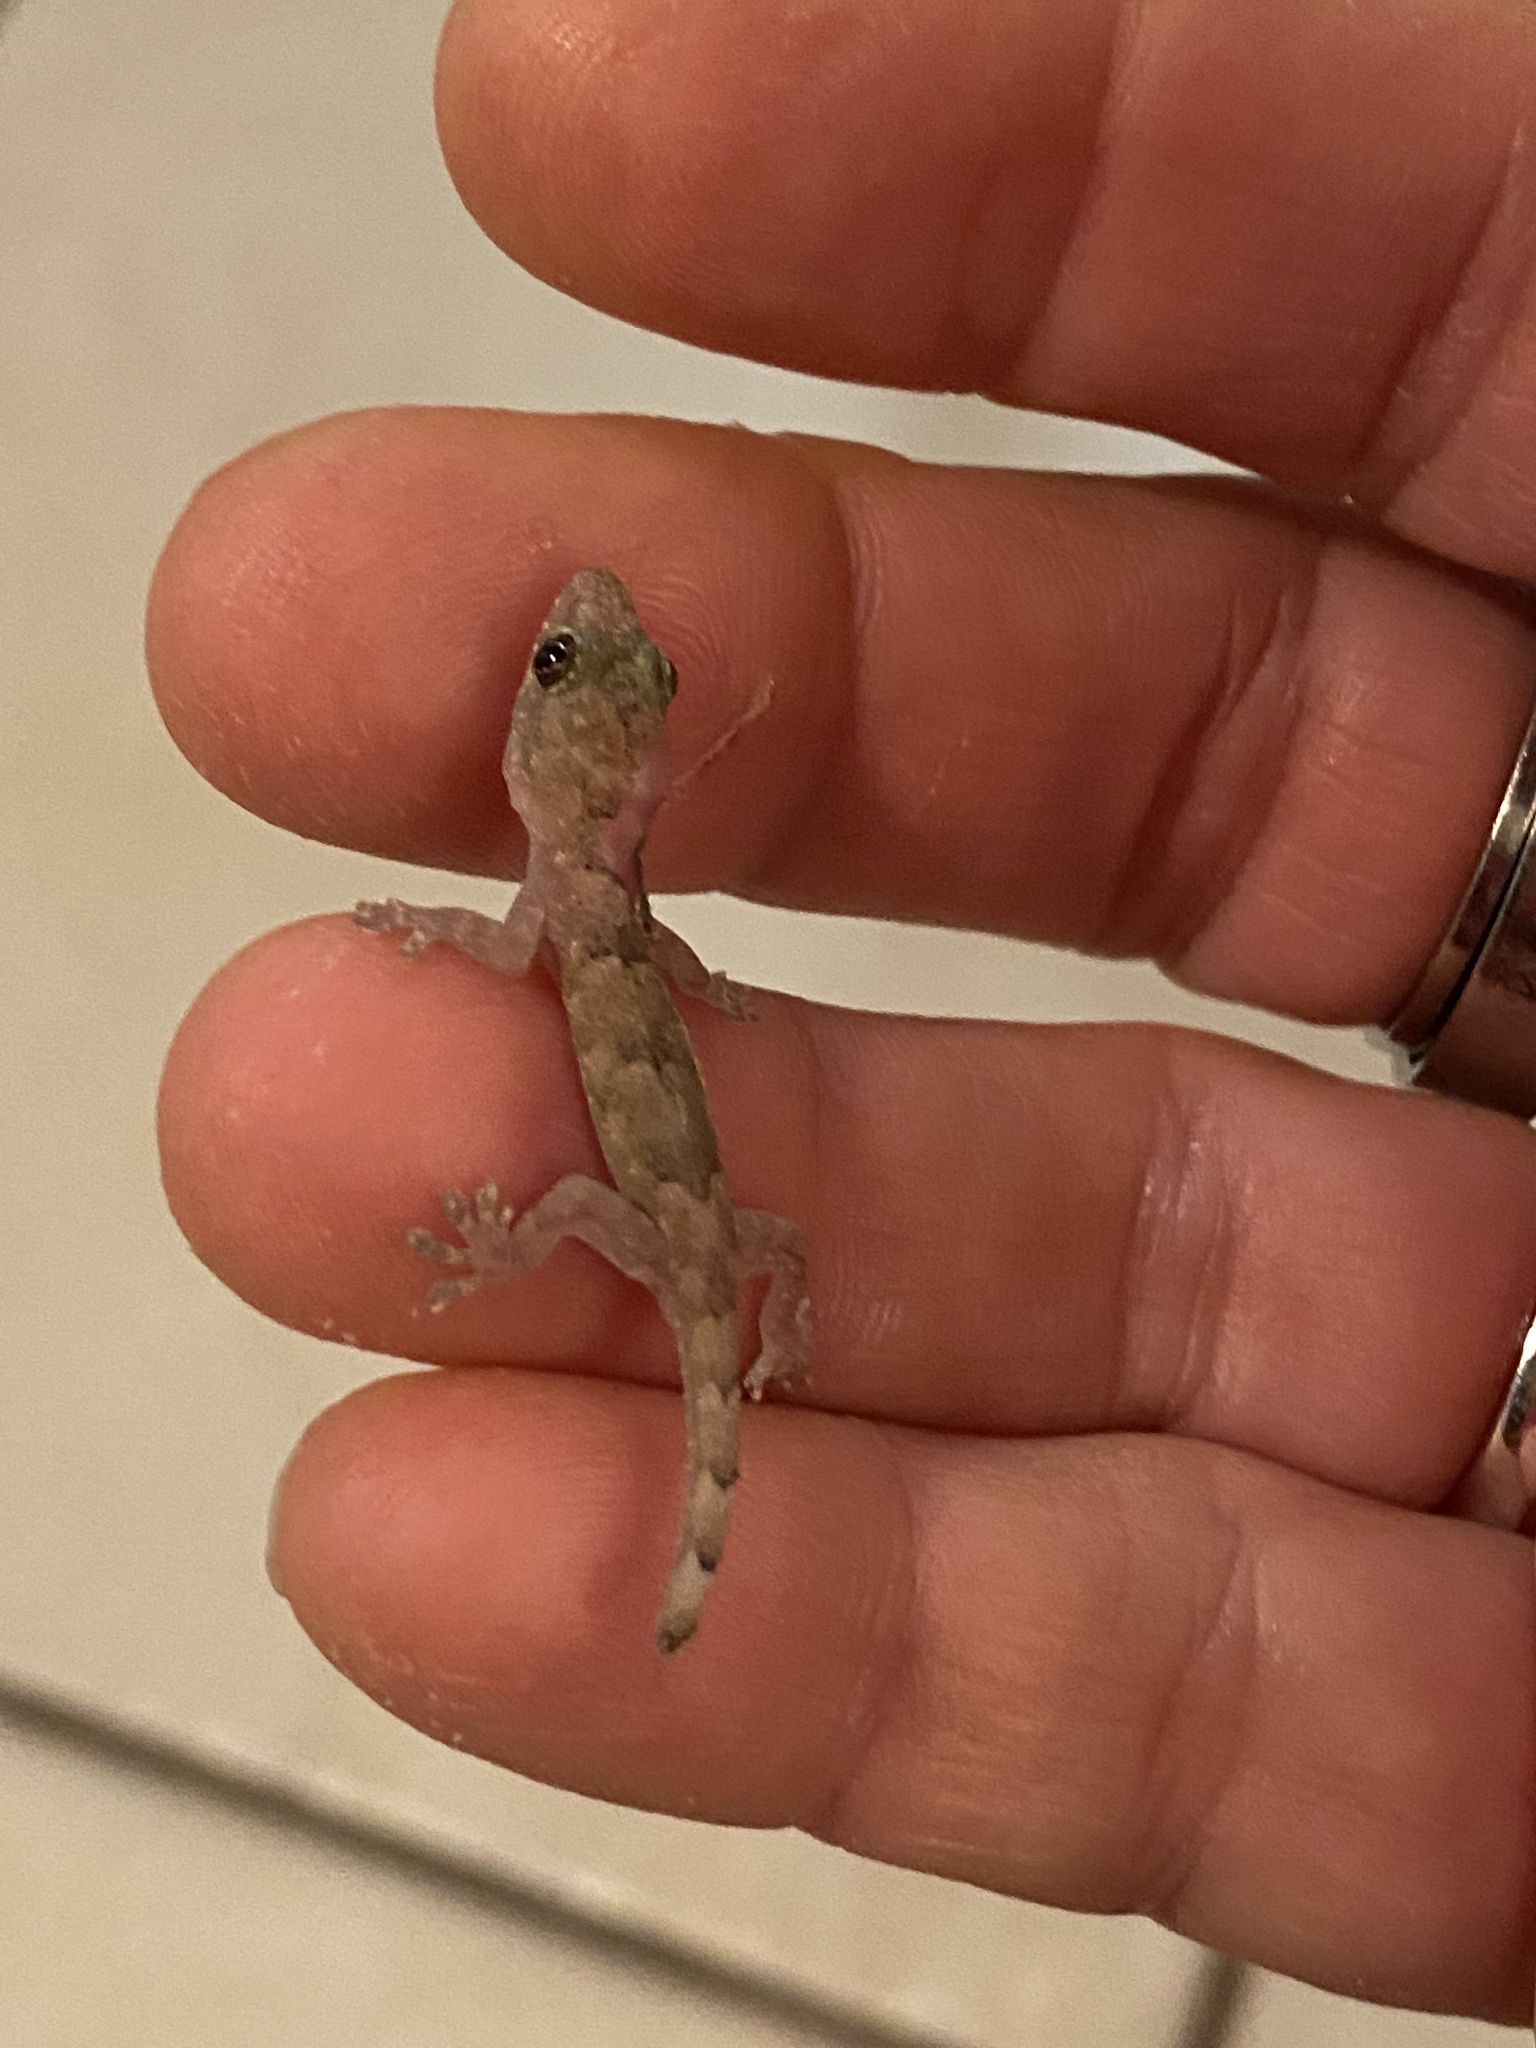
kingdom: Animalia
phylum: Chordata
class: Squamata
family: Gekkonidae
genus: Hemidactylus
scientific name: Hemidactylus mabouia
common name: House gecko
